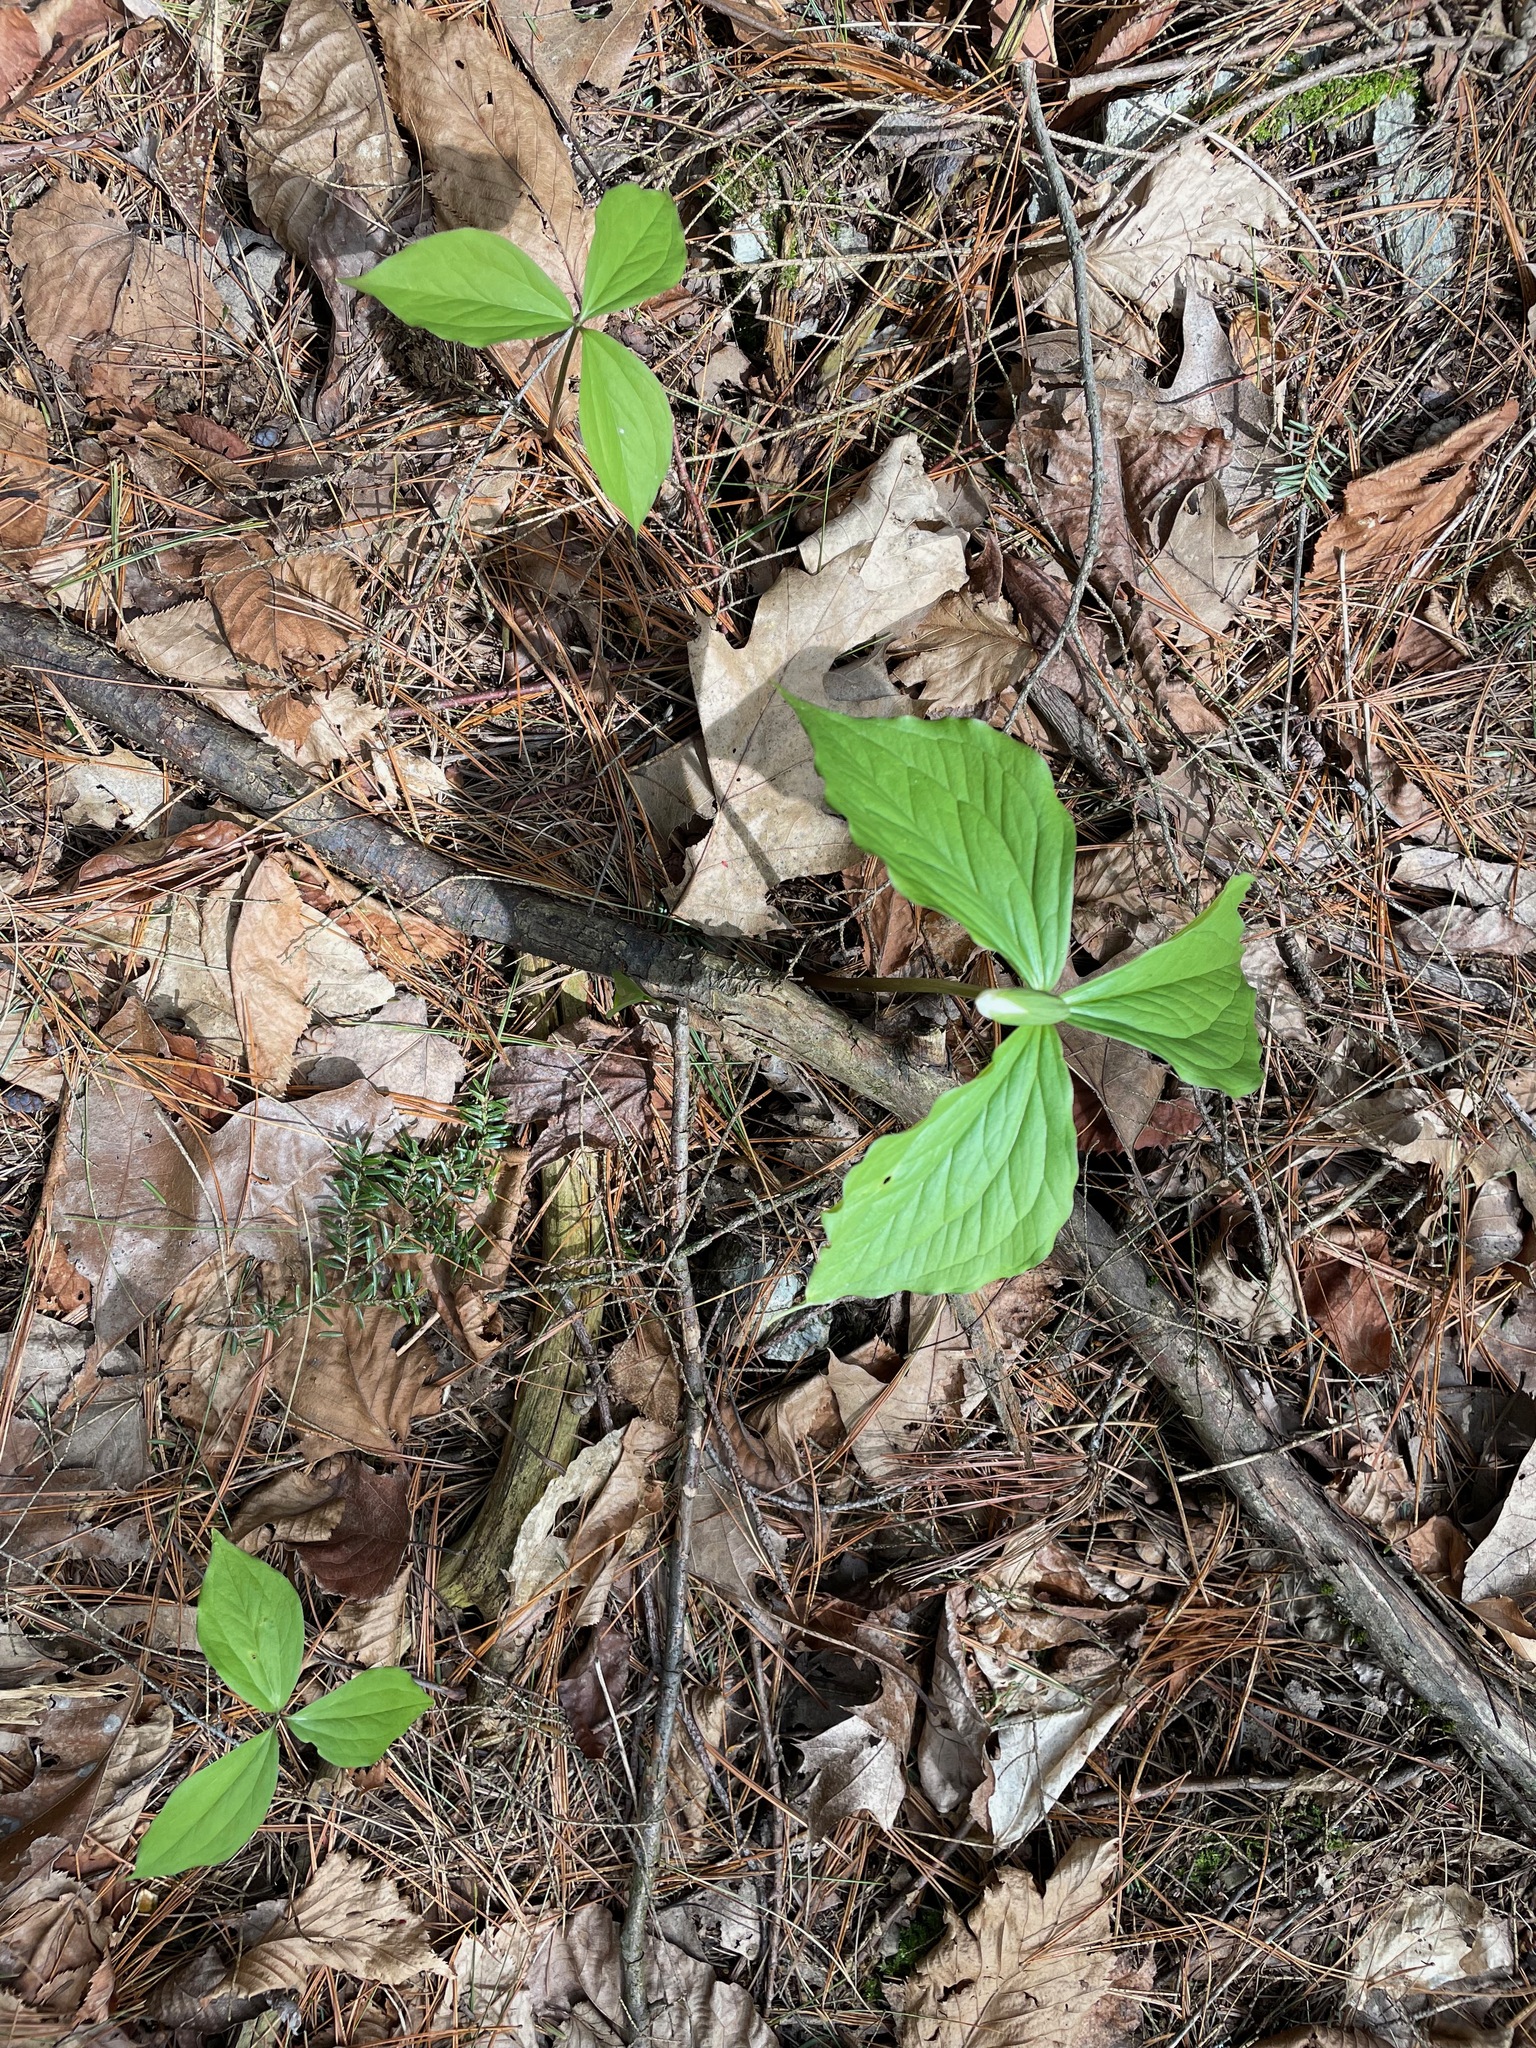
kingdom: Plantae
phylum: Tracheophyta
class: Liliopsida
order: Liliales
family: Melanthiaceae
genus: Trillium
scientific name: Trillium grandiflorum
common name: Great white trillium
